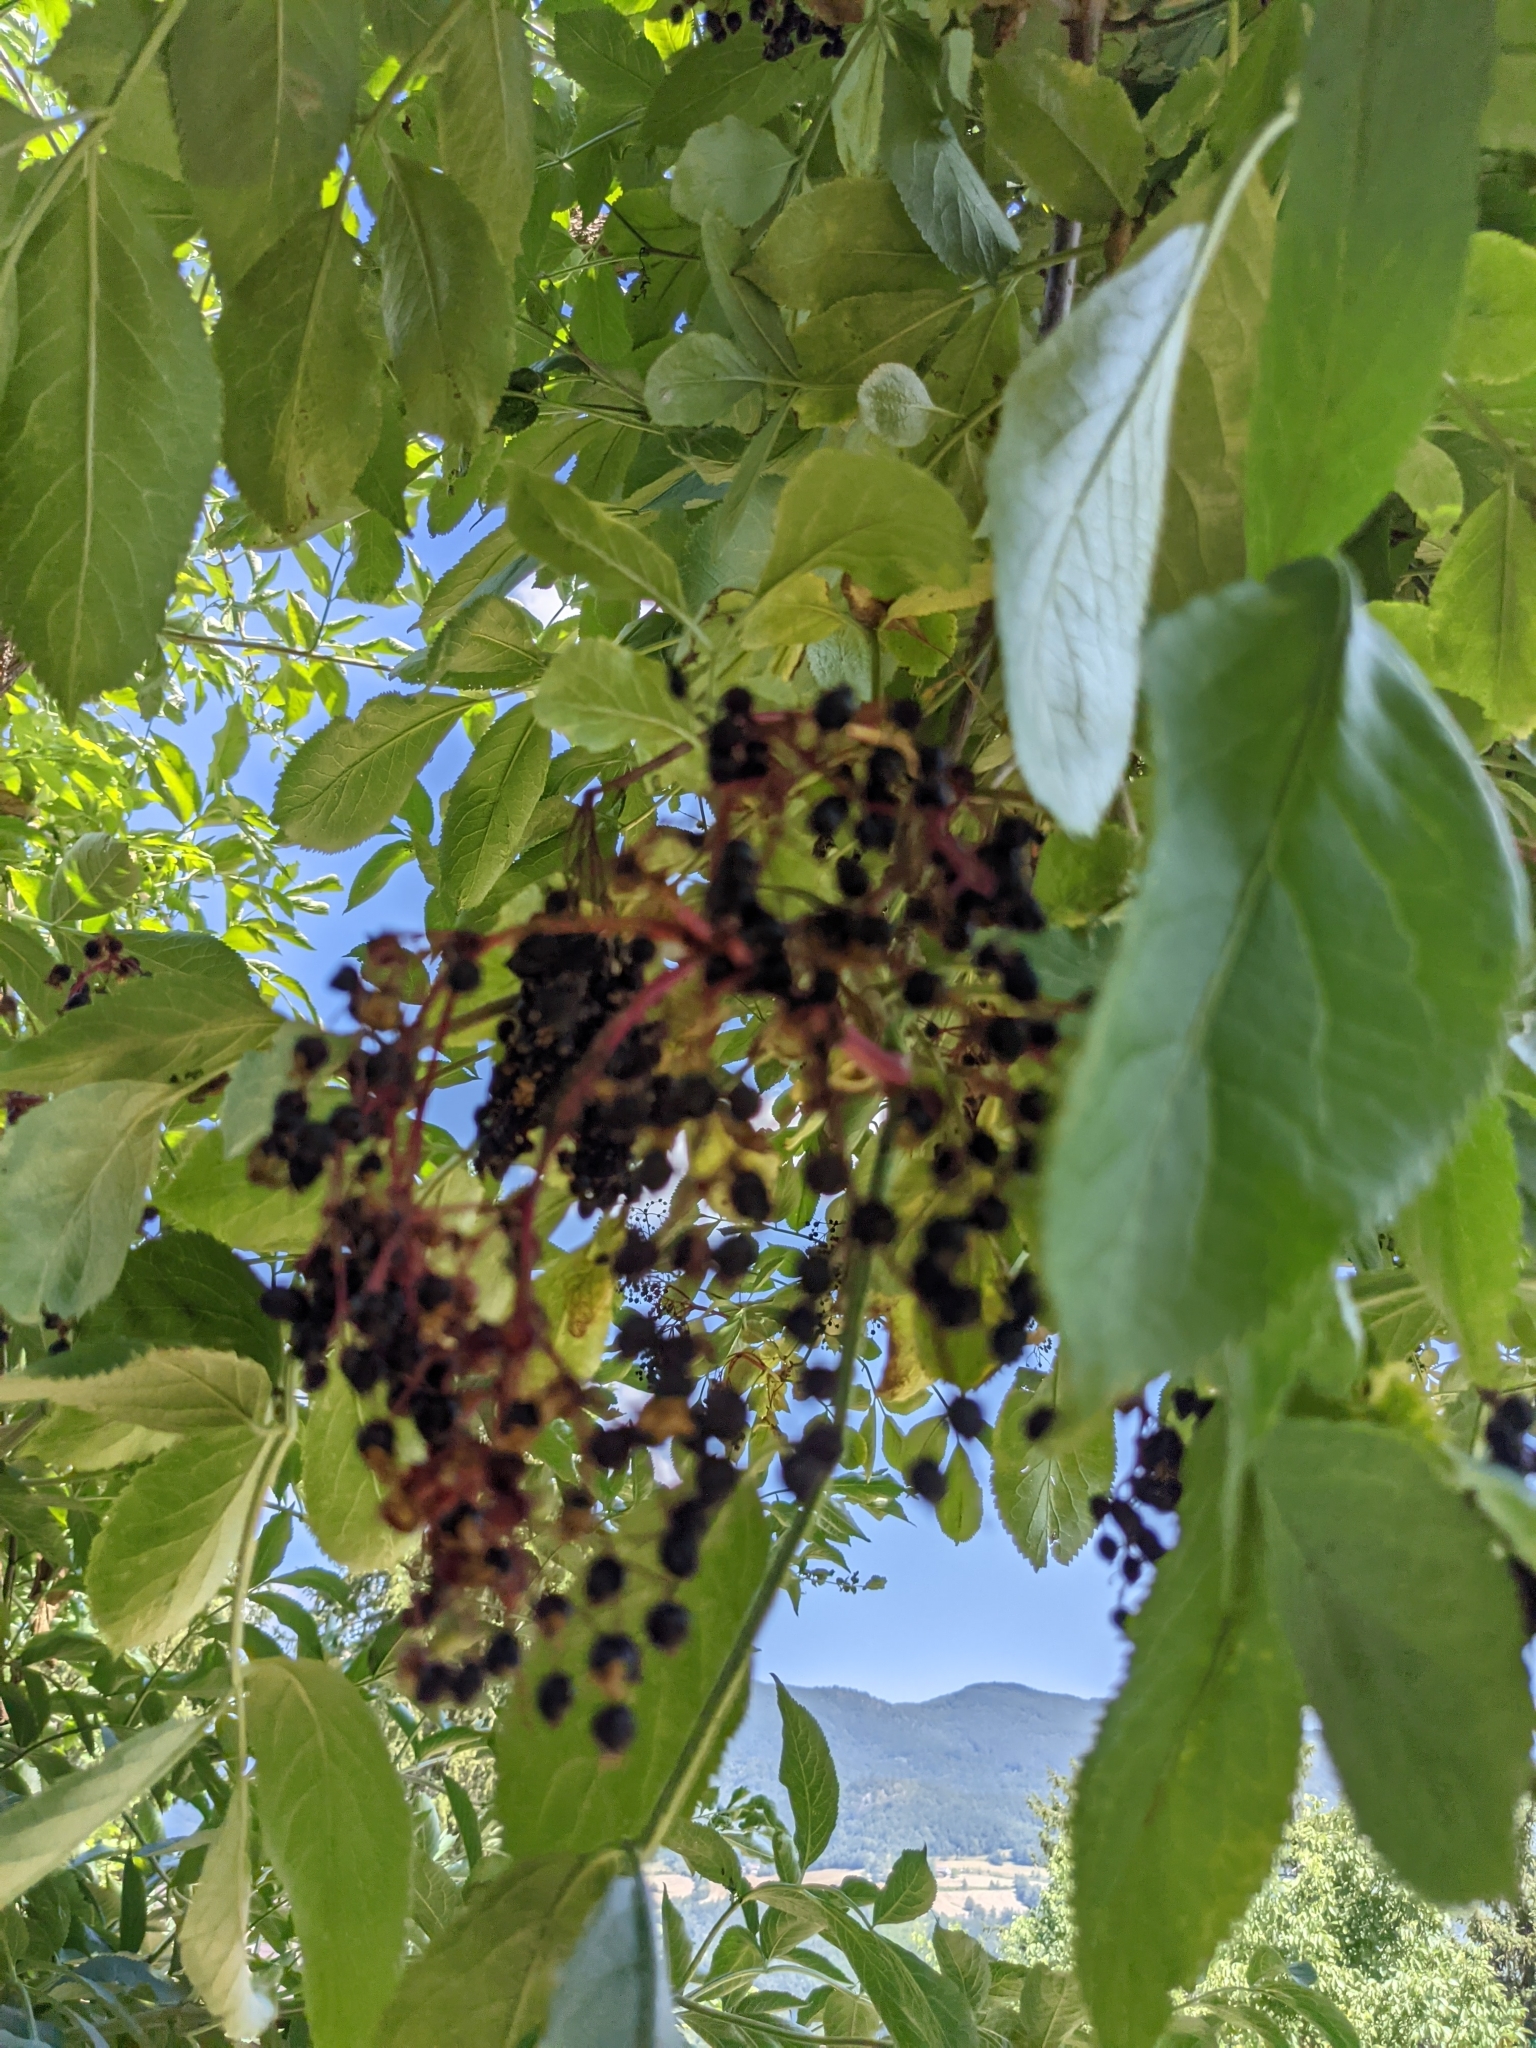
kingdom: Plantae
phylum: Tracheophyta
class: Magnoliopsida
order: Dipsacales
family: Viburnaceae
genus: Sambucus
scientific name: Sambucus nigra
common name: Elder
